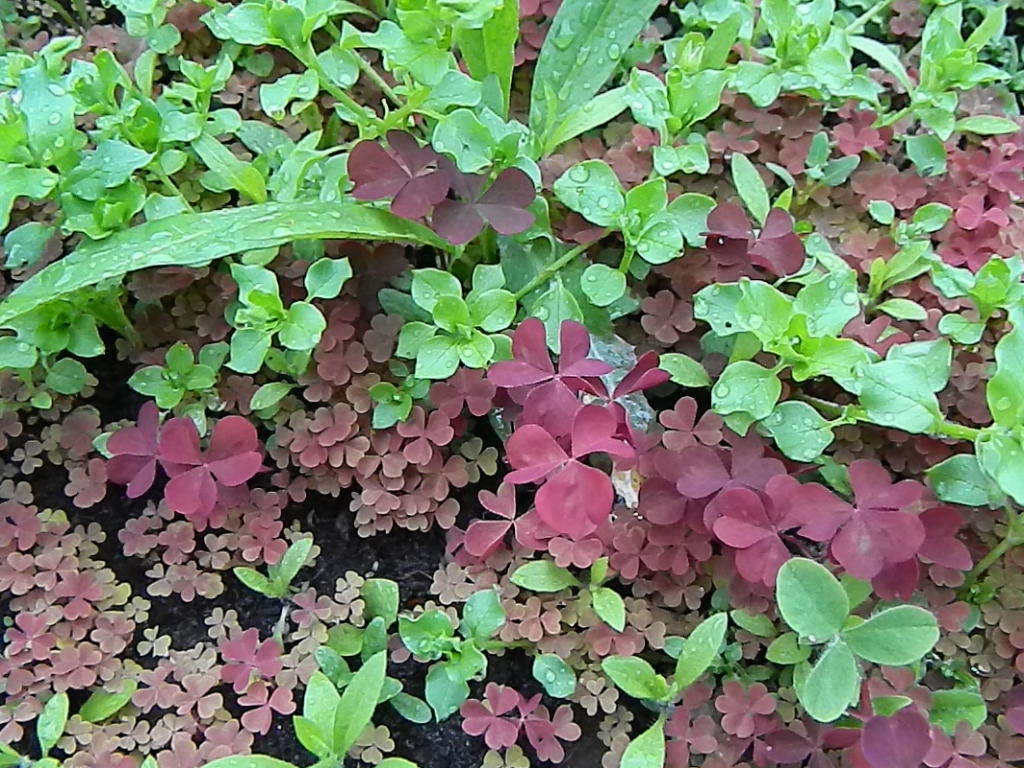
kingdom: Plantae
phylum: Tracheophyta
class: Magnoliopsida
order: Oxalidales
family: Oxalidaceae
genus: Oxalis
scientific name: Oxalis stricta
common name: Upright yellow-sorrel
